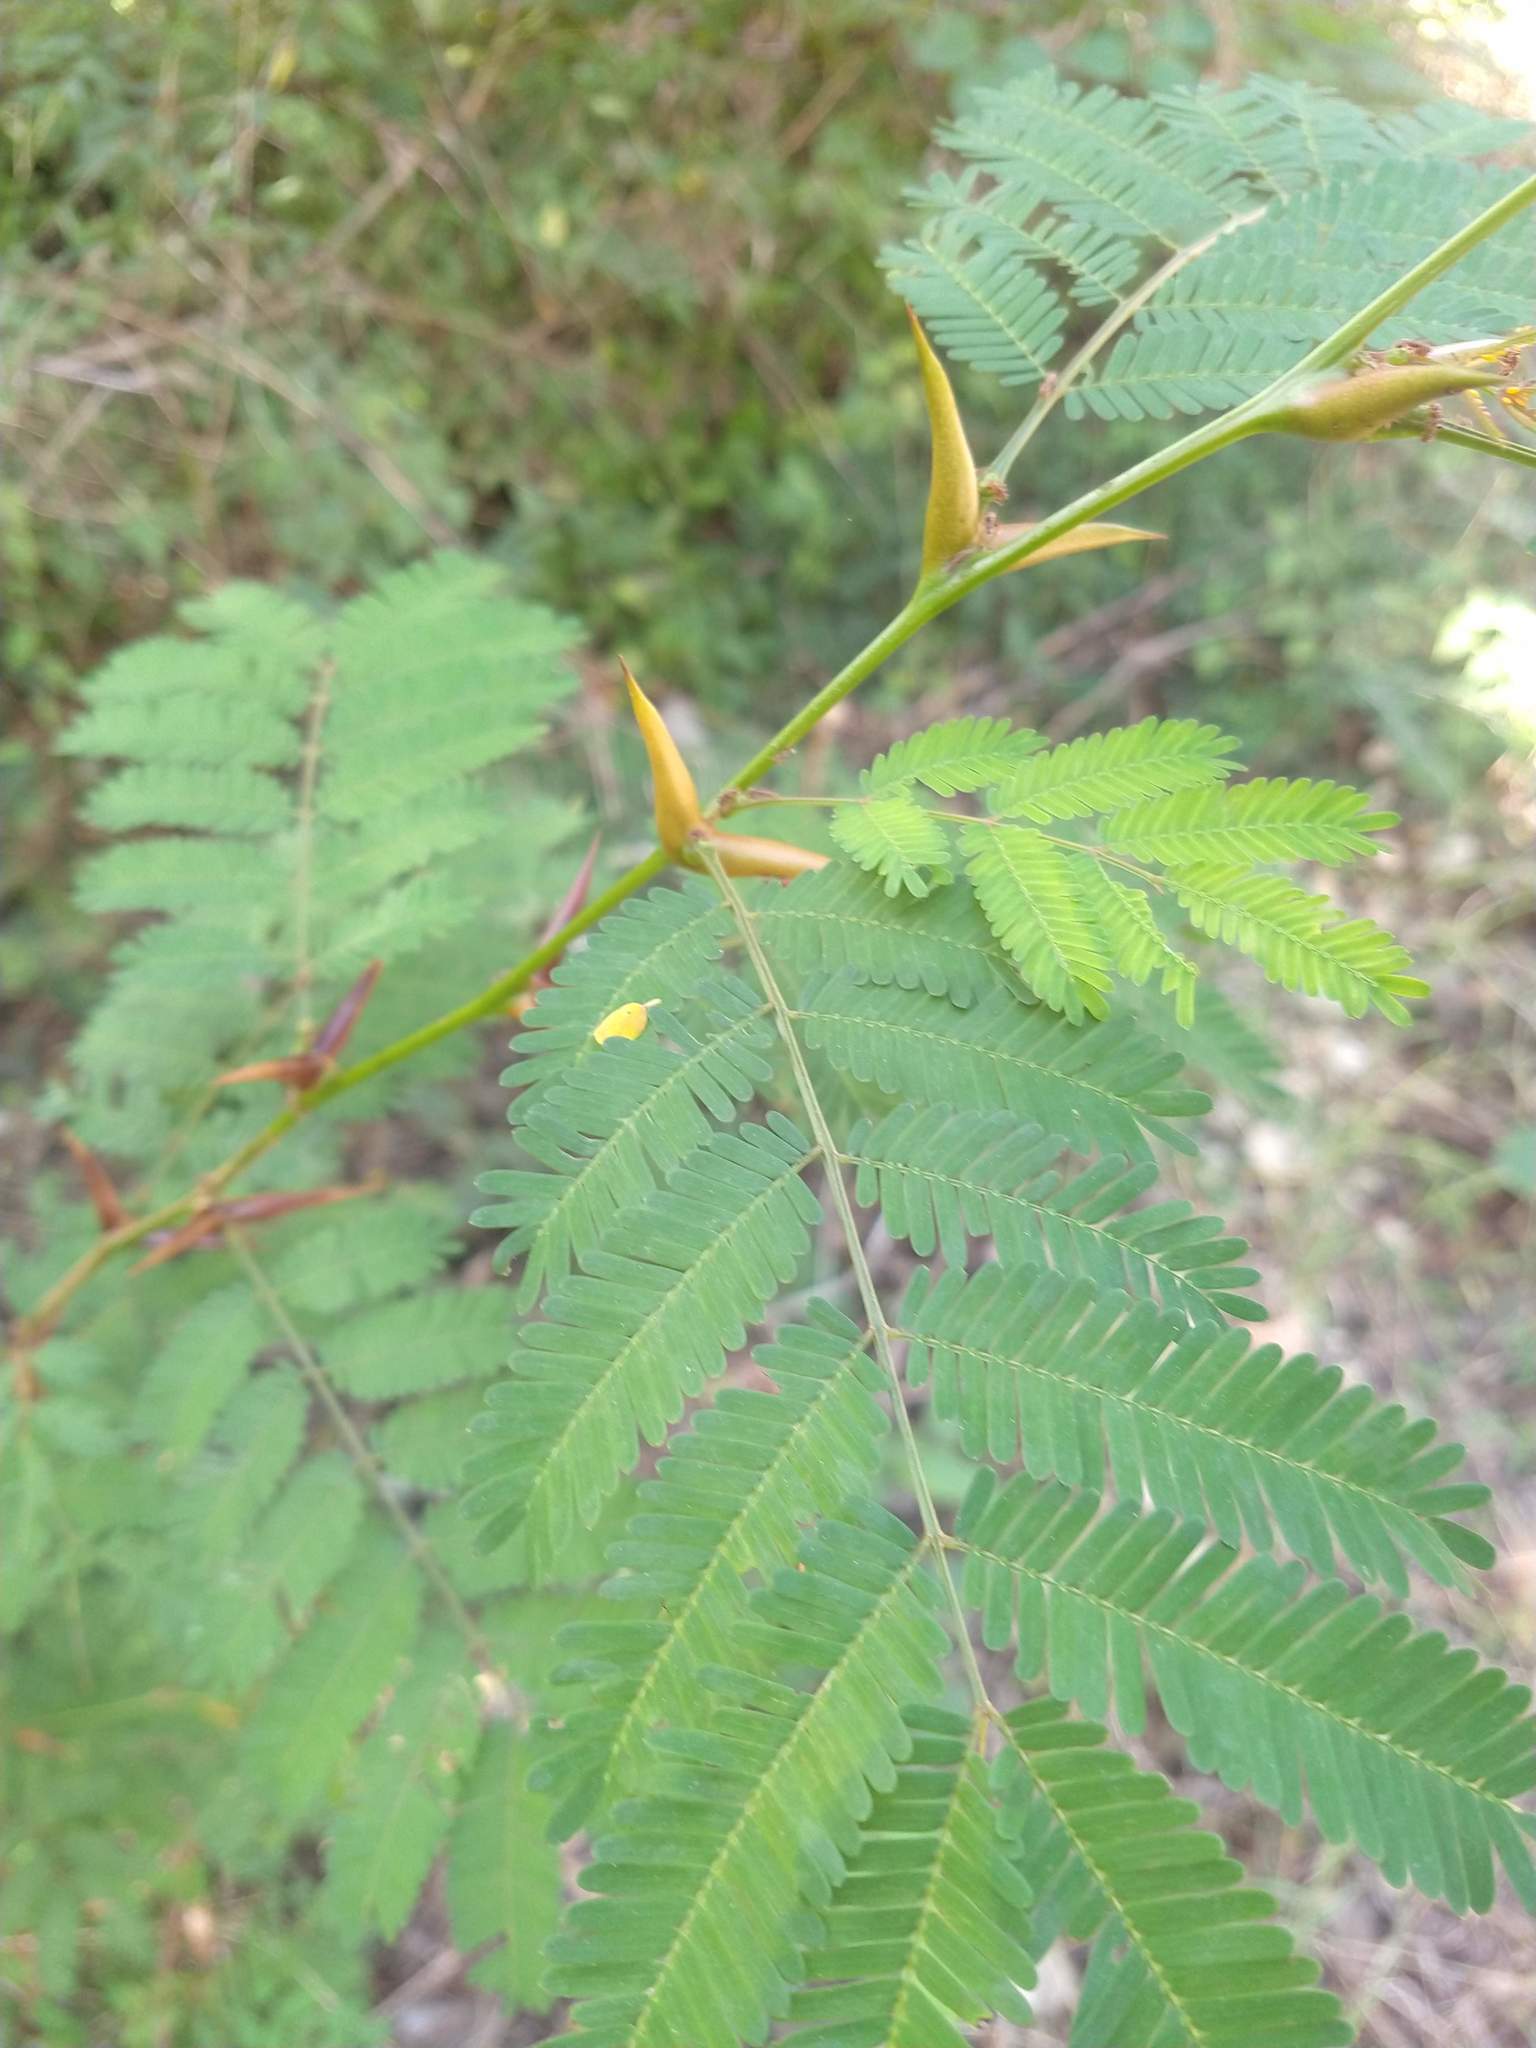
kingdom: Plantae
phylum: Tracheophyta
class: Magnoliopsida
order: Fabales
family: Fabaceae
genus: Vachellia
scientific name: Vachellia cornigera
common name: Bullhorn wattle
